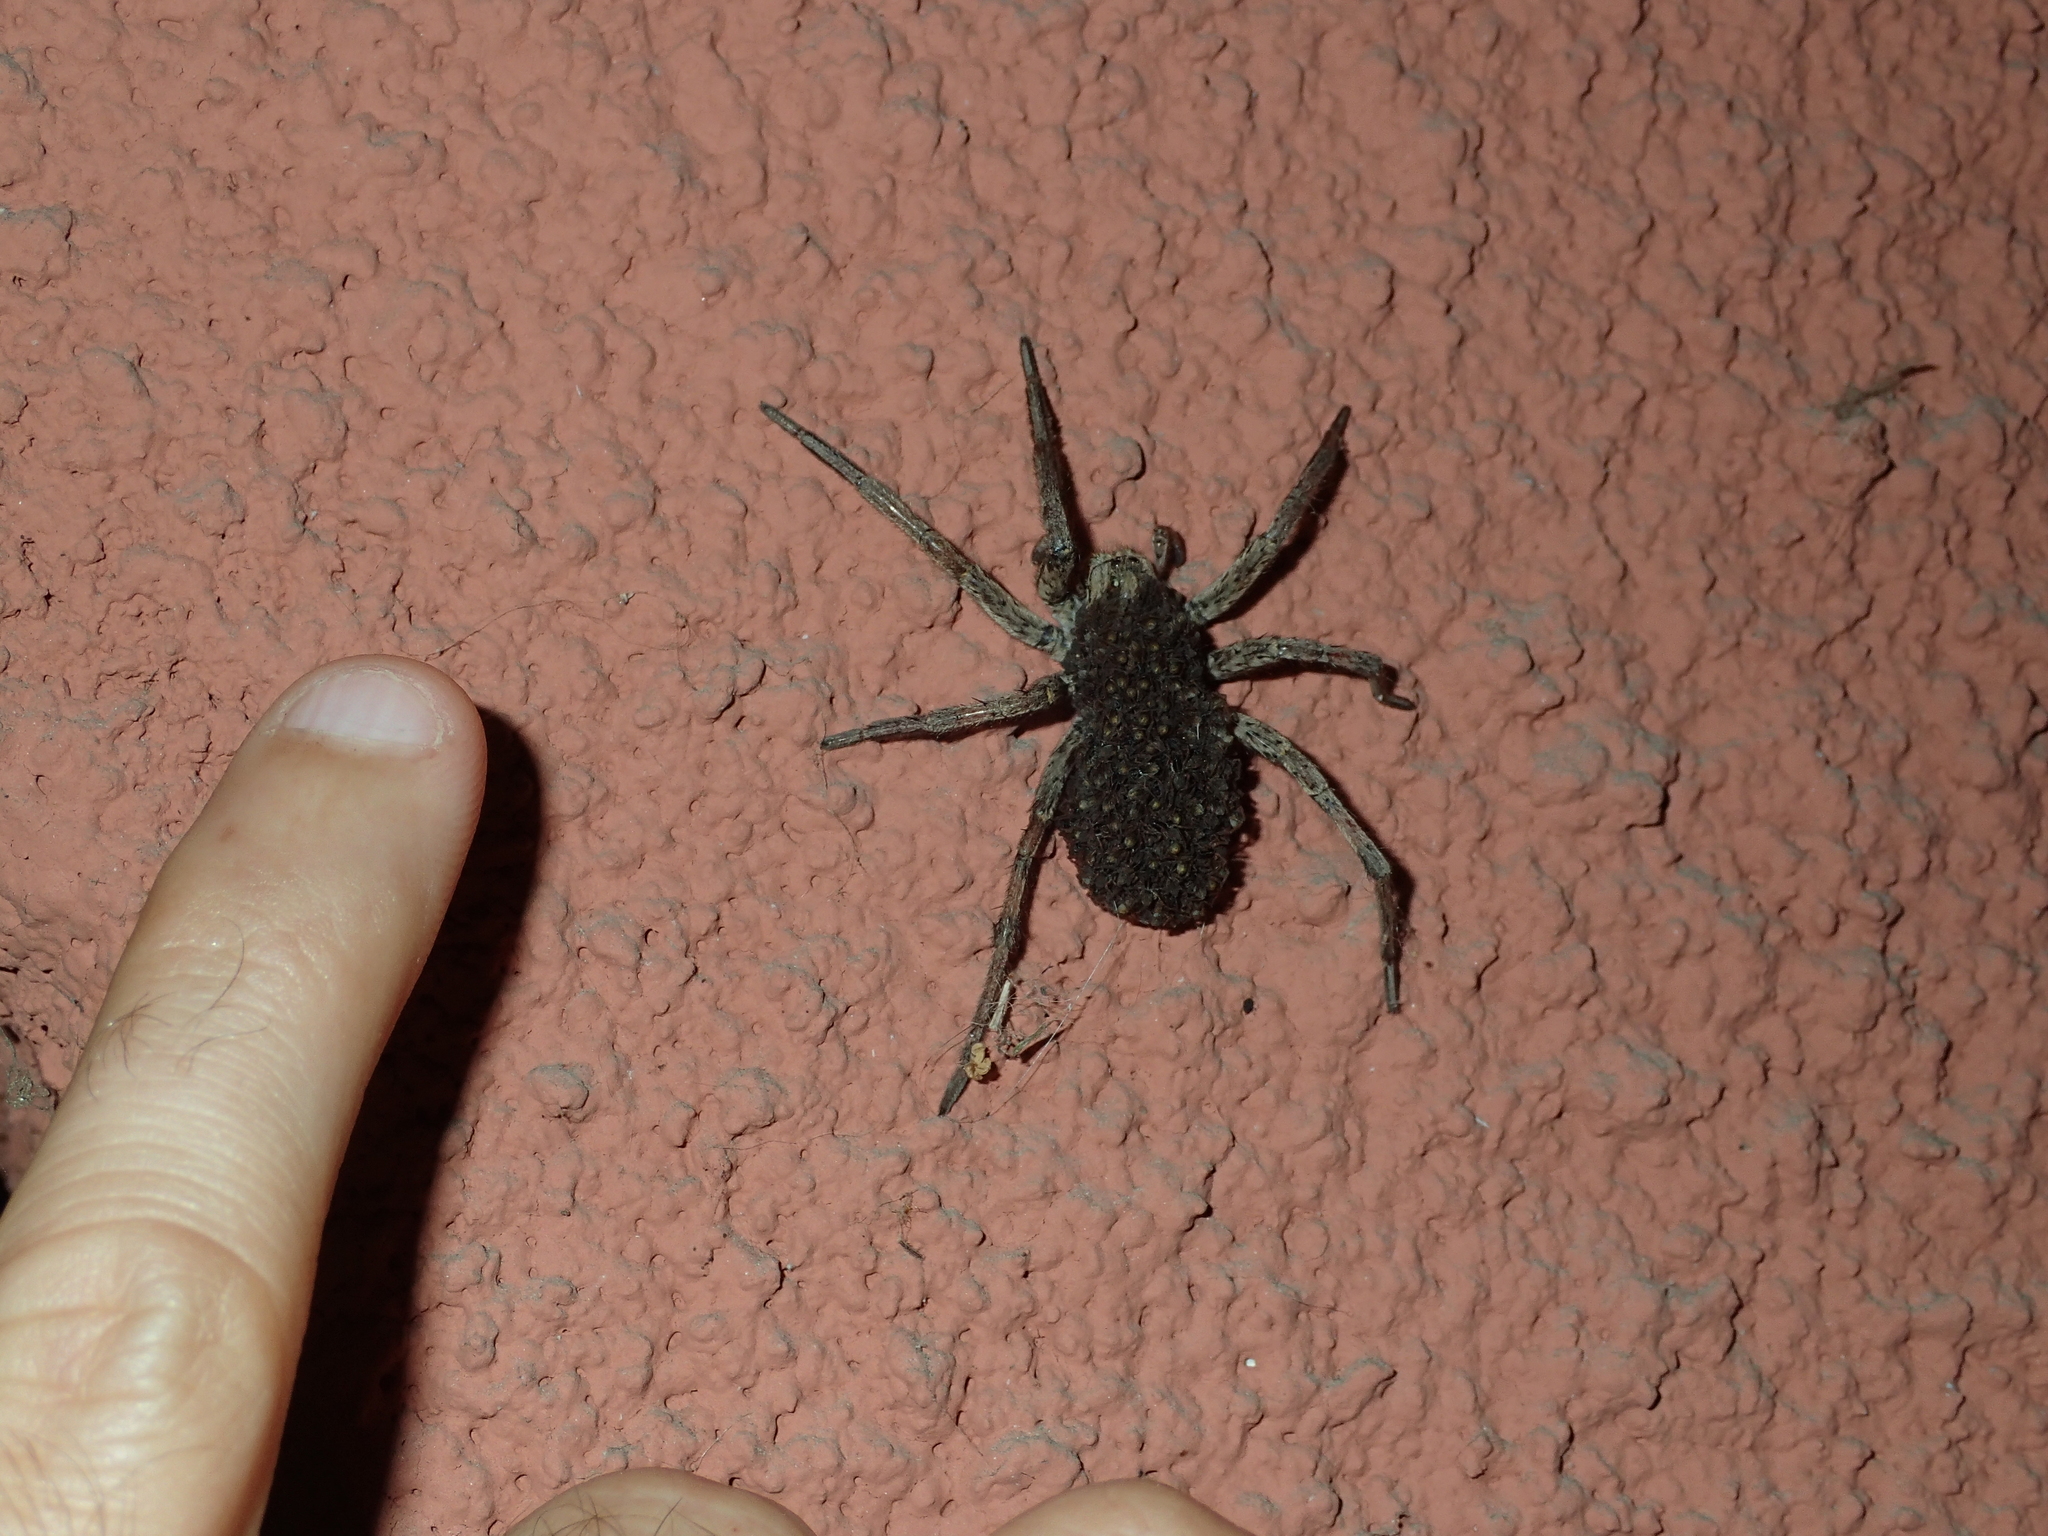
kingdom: Animalia
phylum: Arthropoda
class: Arachnida
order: Araneae
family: Lycosidae
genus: Hogna
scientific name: Hogna radiata
